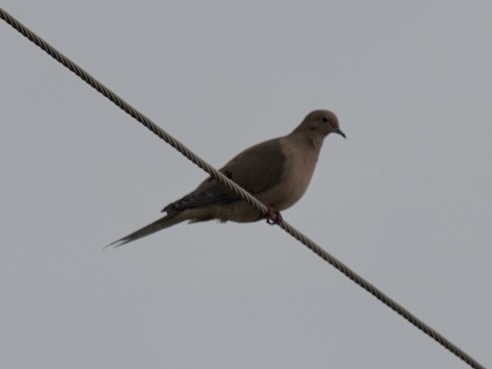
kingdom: Animalia
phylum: Chordata
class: Aves
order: Columbiformes
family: Columbidae
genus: Zenaida
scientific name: Zenaida macroura
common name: Mourning dove
